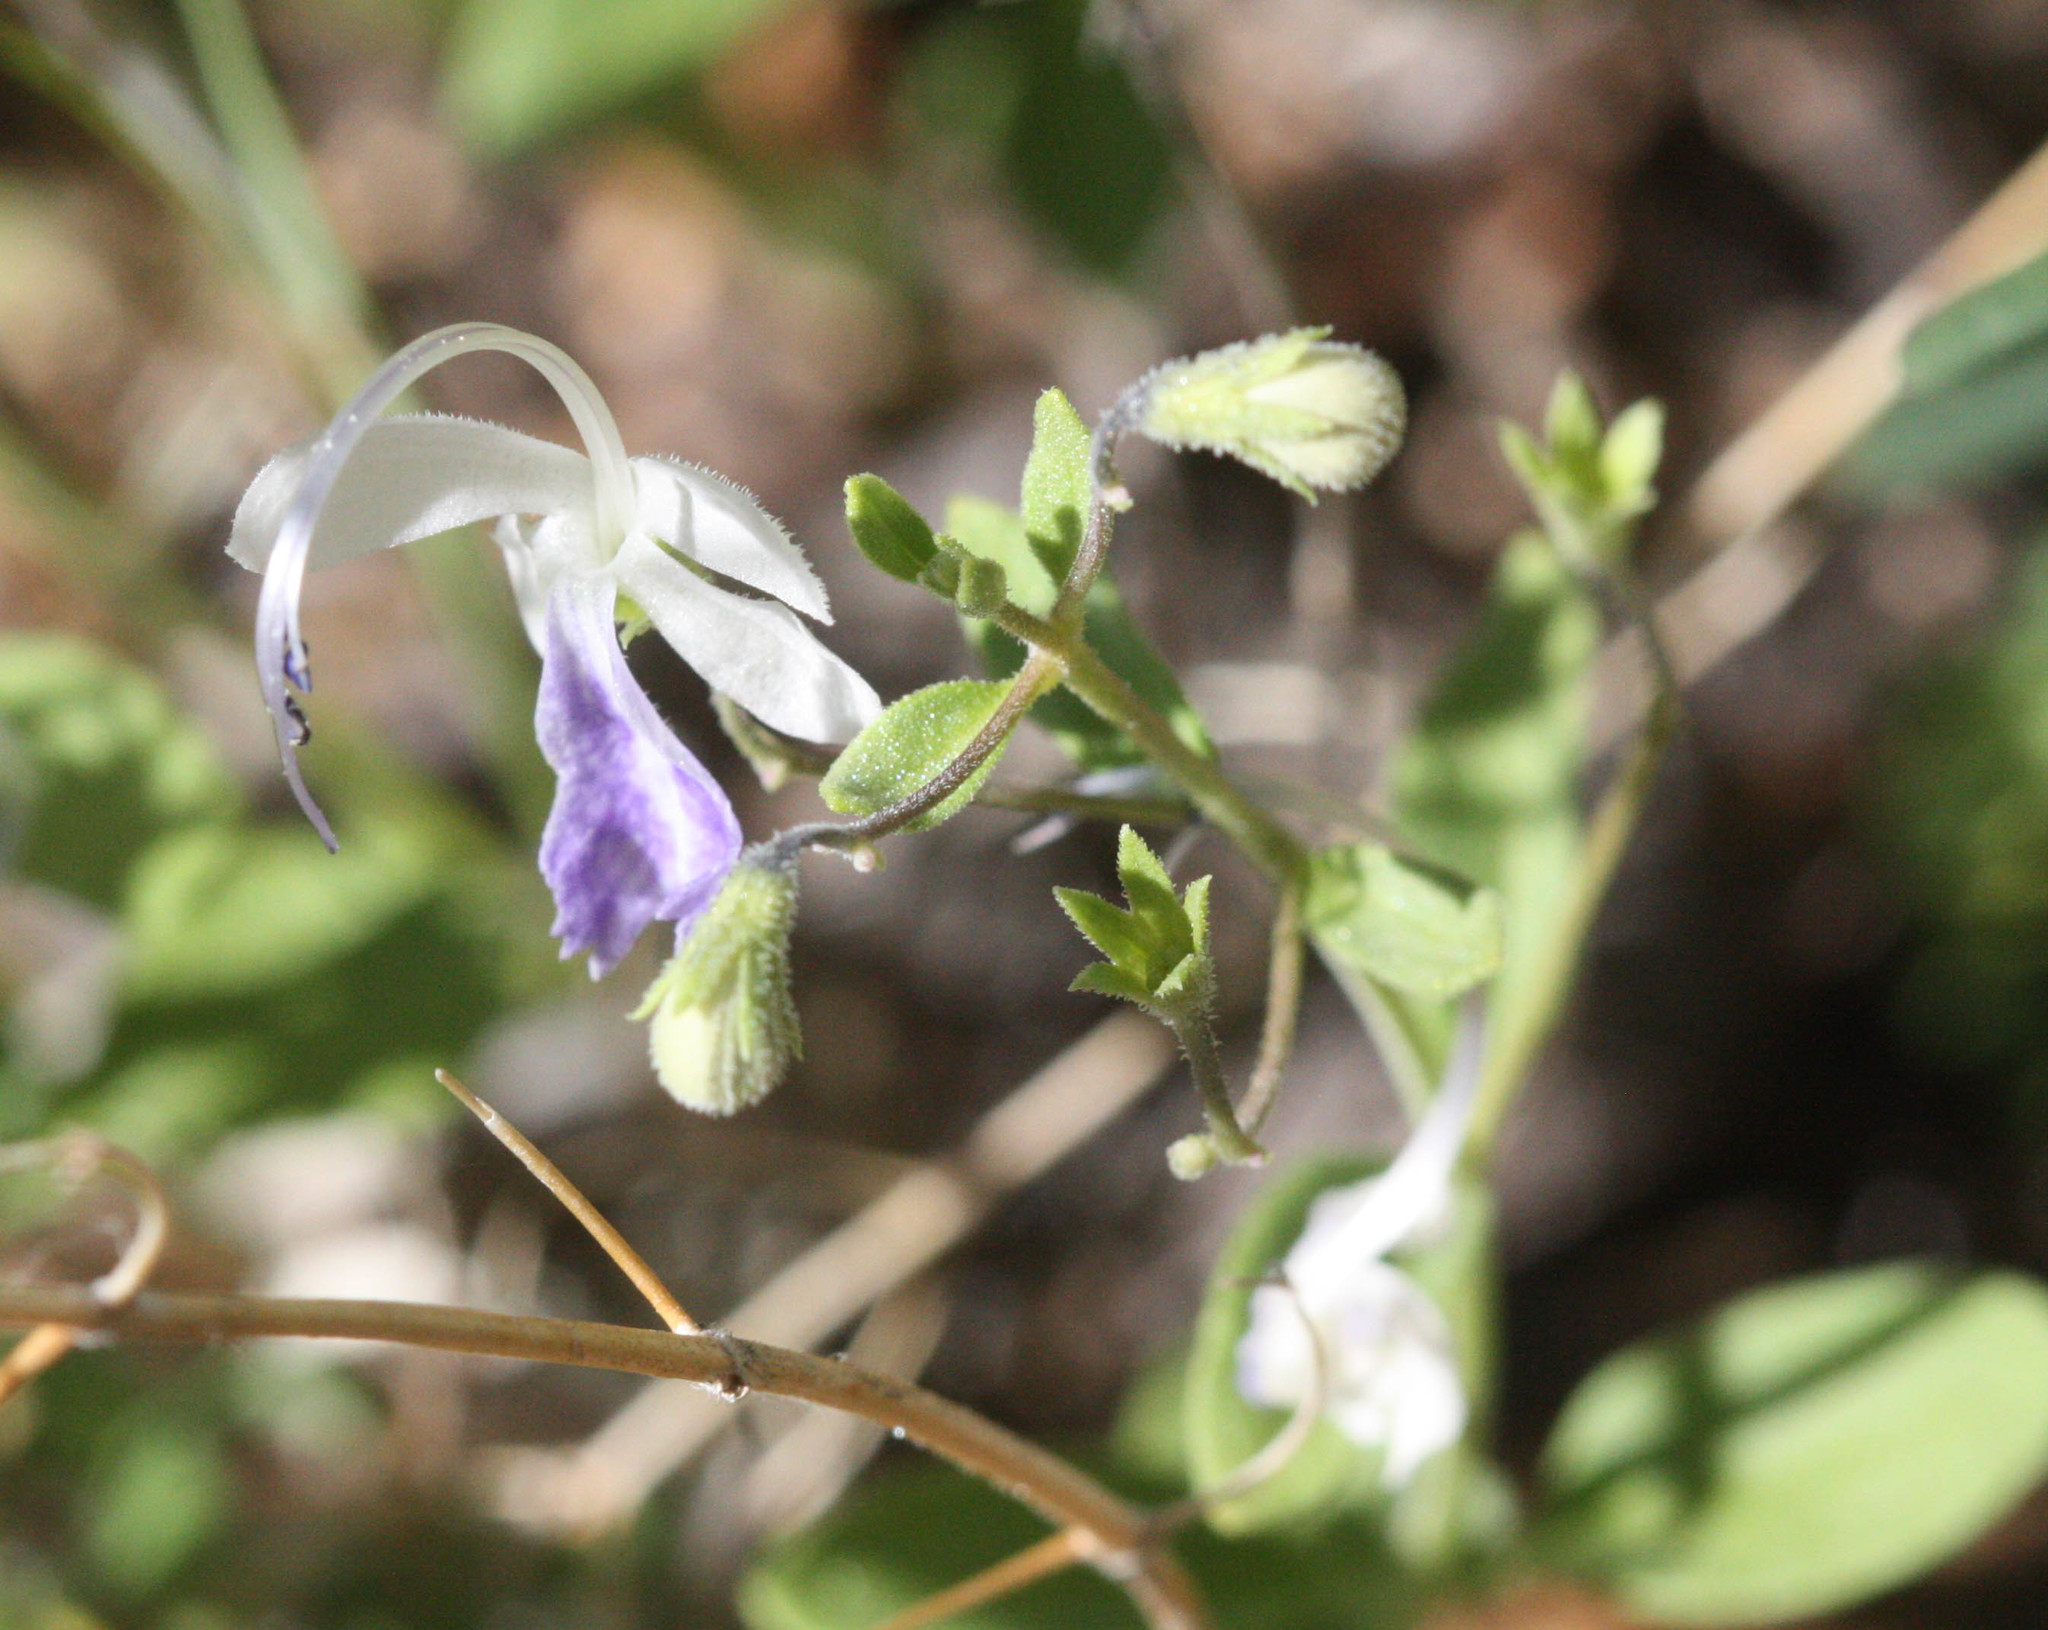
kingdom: Plantae
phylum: Tracheophyta
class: Magnoliopsida
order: Lamiales
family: Lamiaceae
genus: Trichostema
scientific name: Trichostema arizonicum
